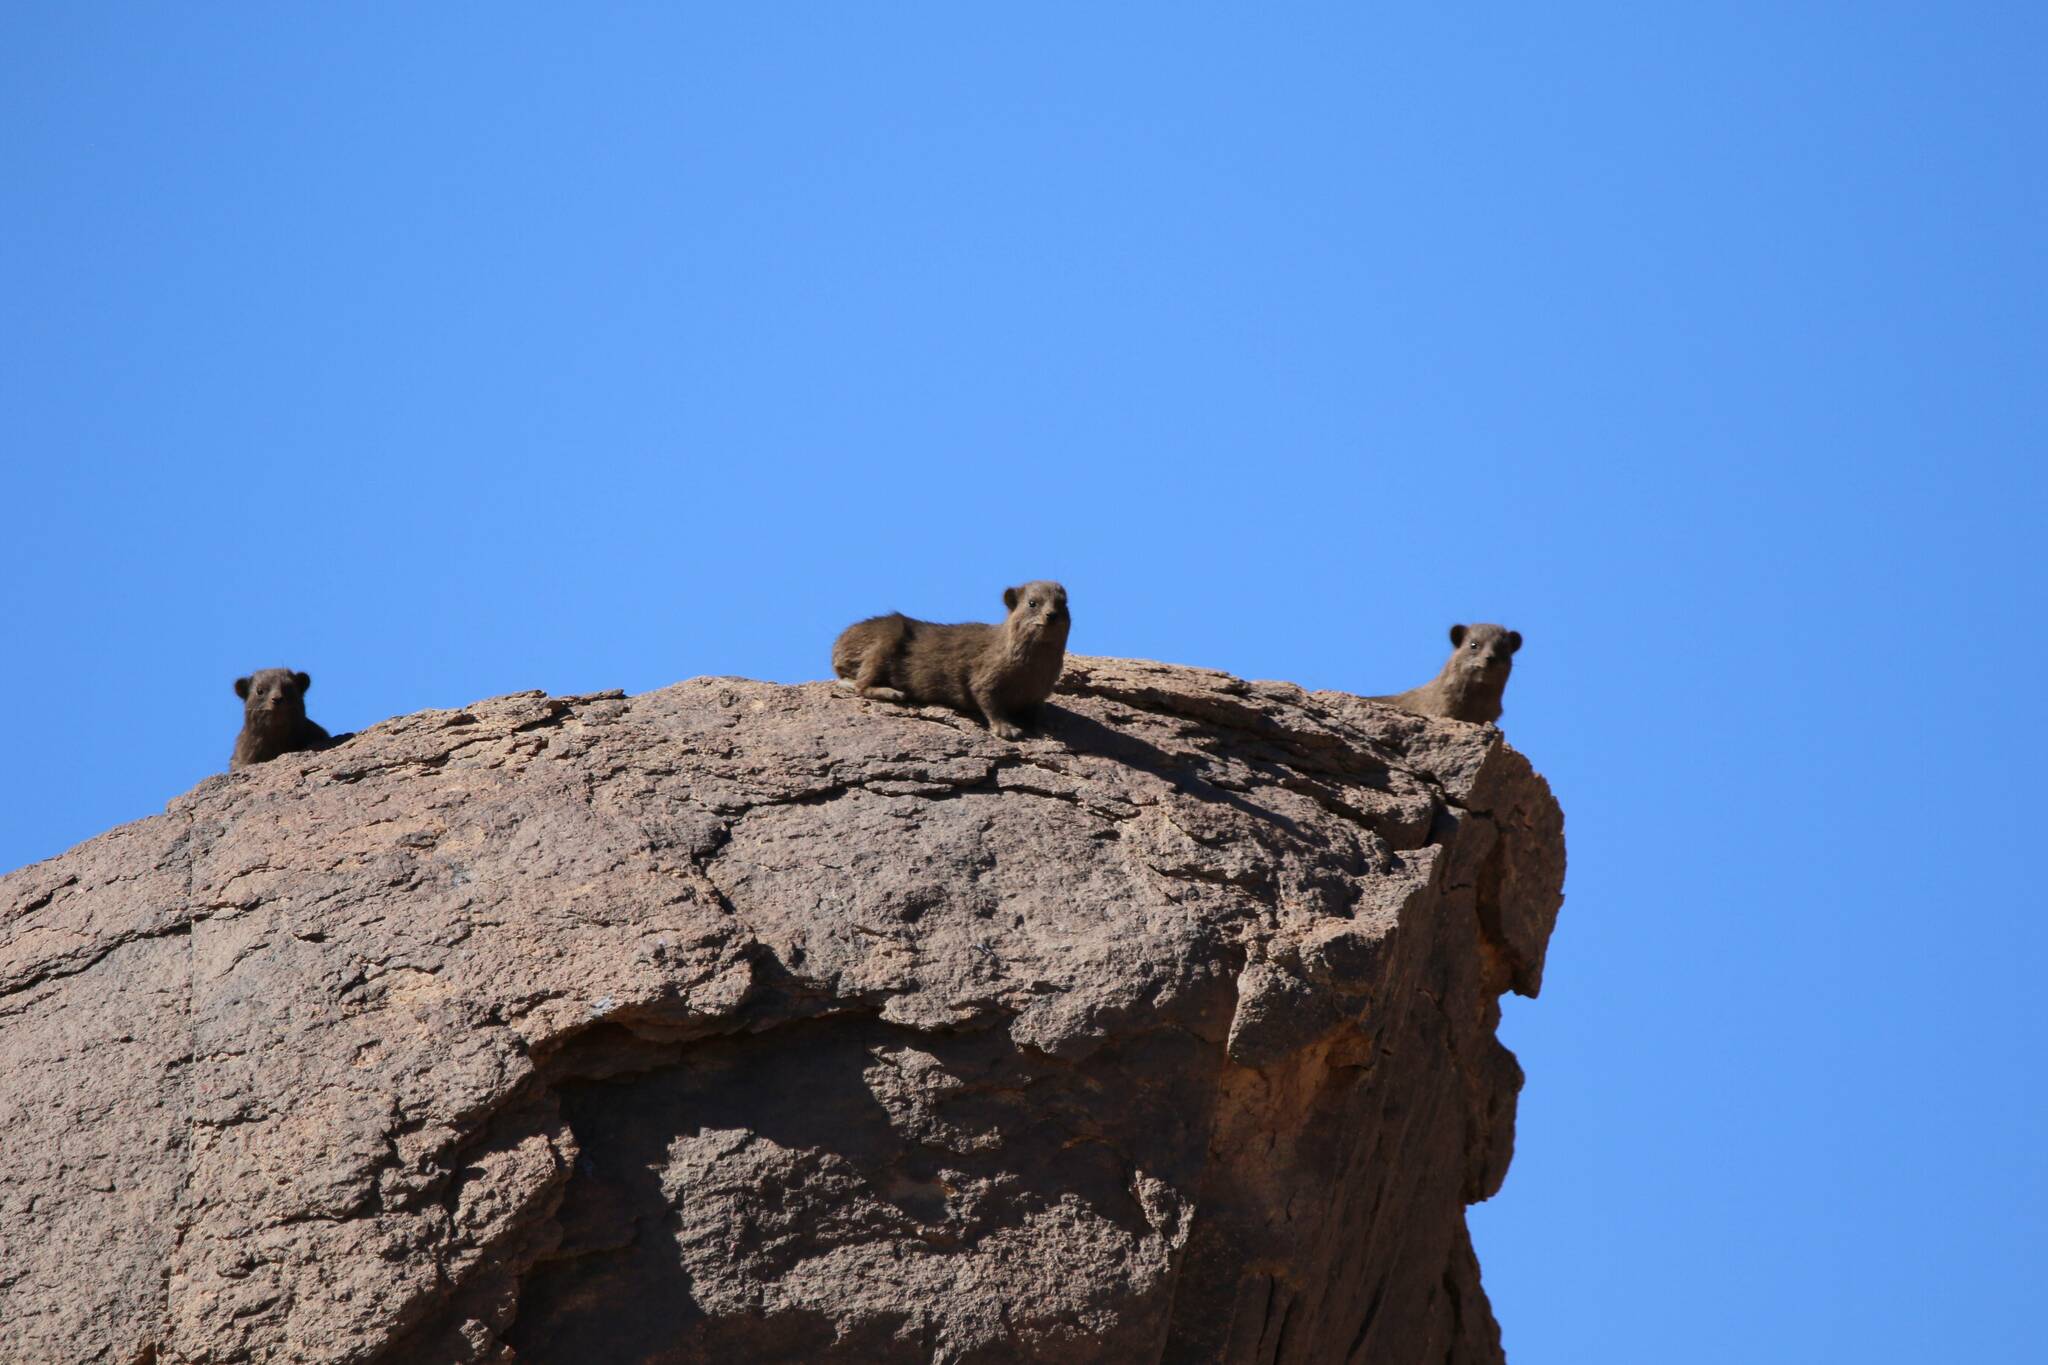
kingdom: Animalia
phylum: Chordata
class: Mammalia
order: Hyracoidea
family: Procaviidae
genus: Procavia
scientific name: Procavia capensis
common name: Rock hyrax
